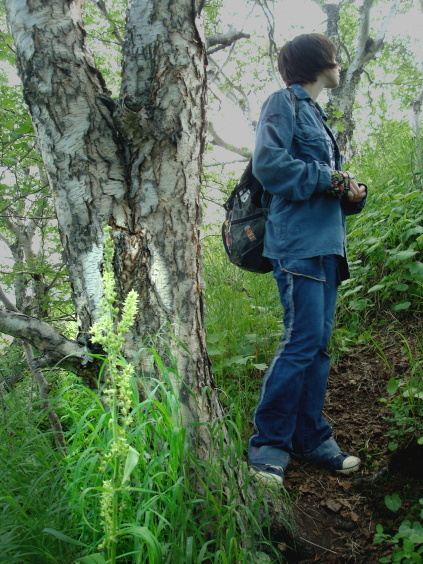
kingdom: Plantae
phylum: Tracheophyta
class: Liliopsida
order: Liliales
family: Melanthiaceae
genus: Veratrum
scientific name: Veratrum oxysepalum
